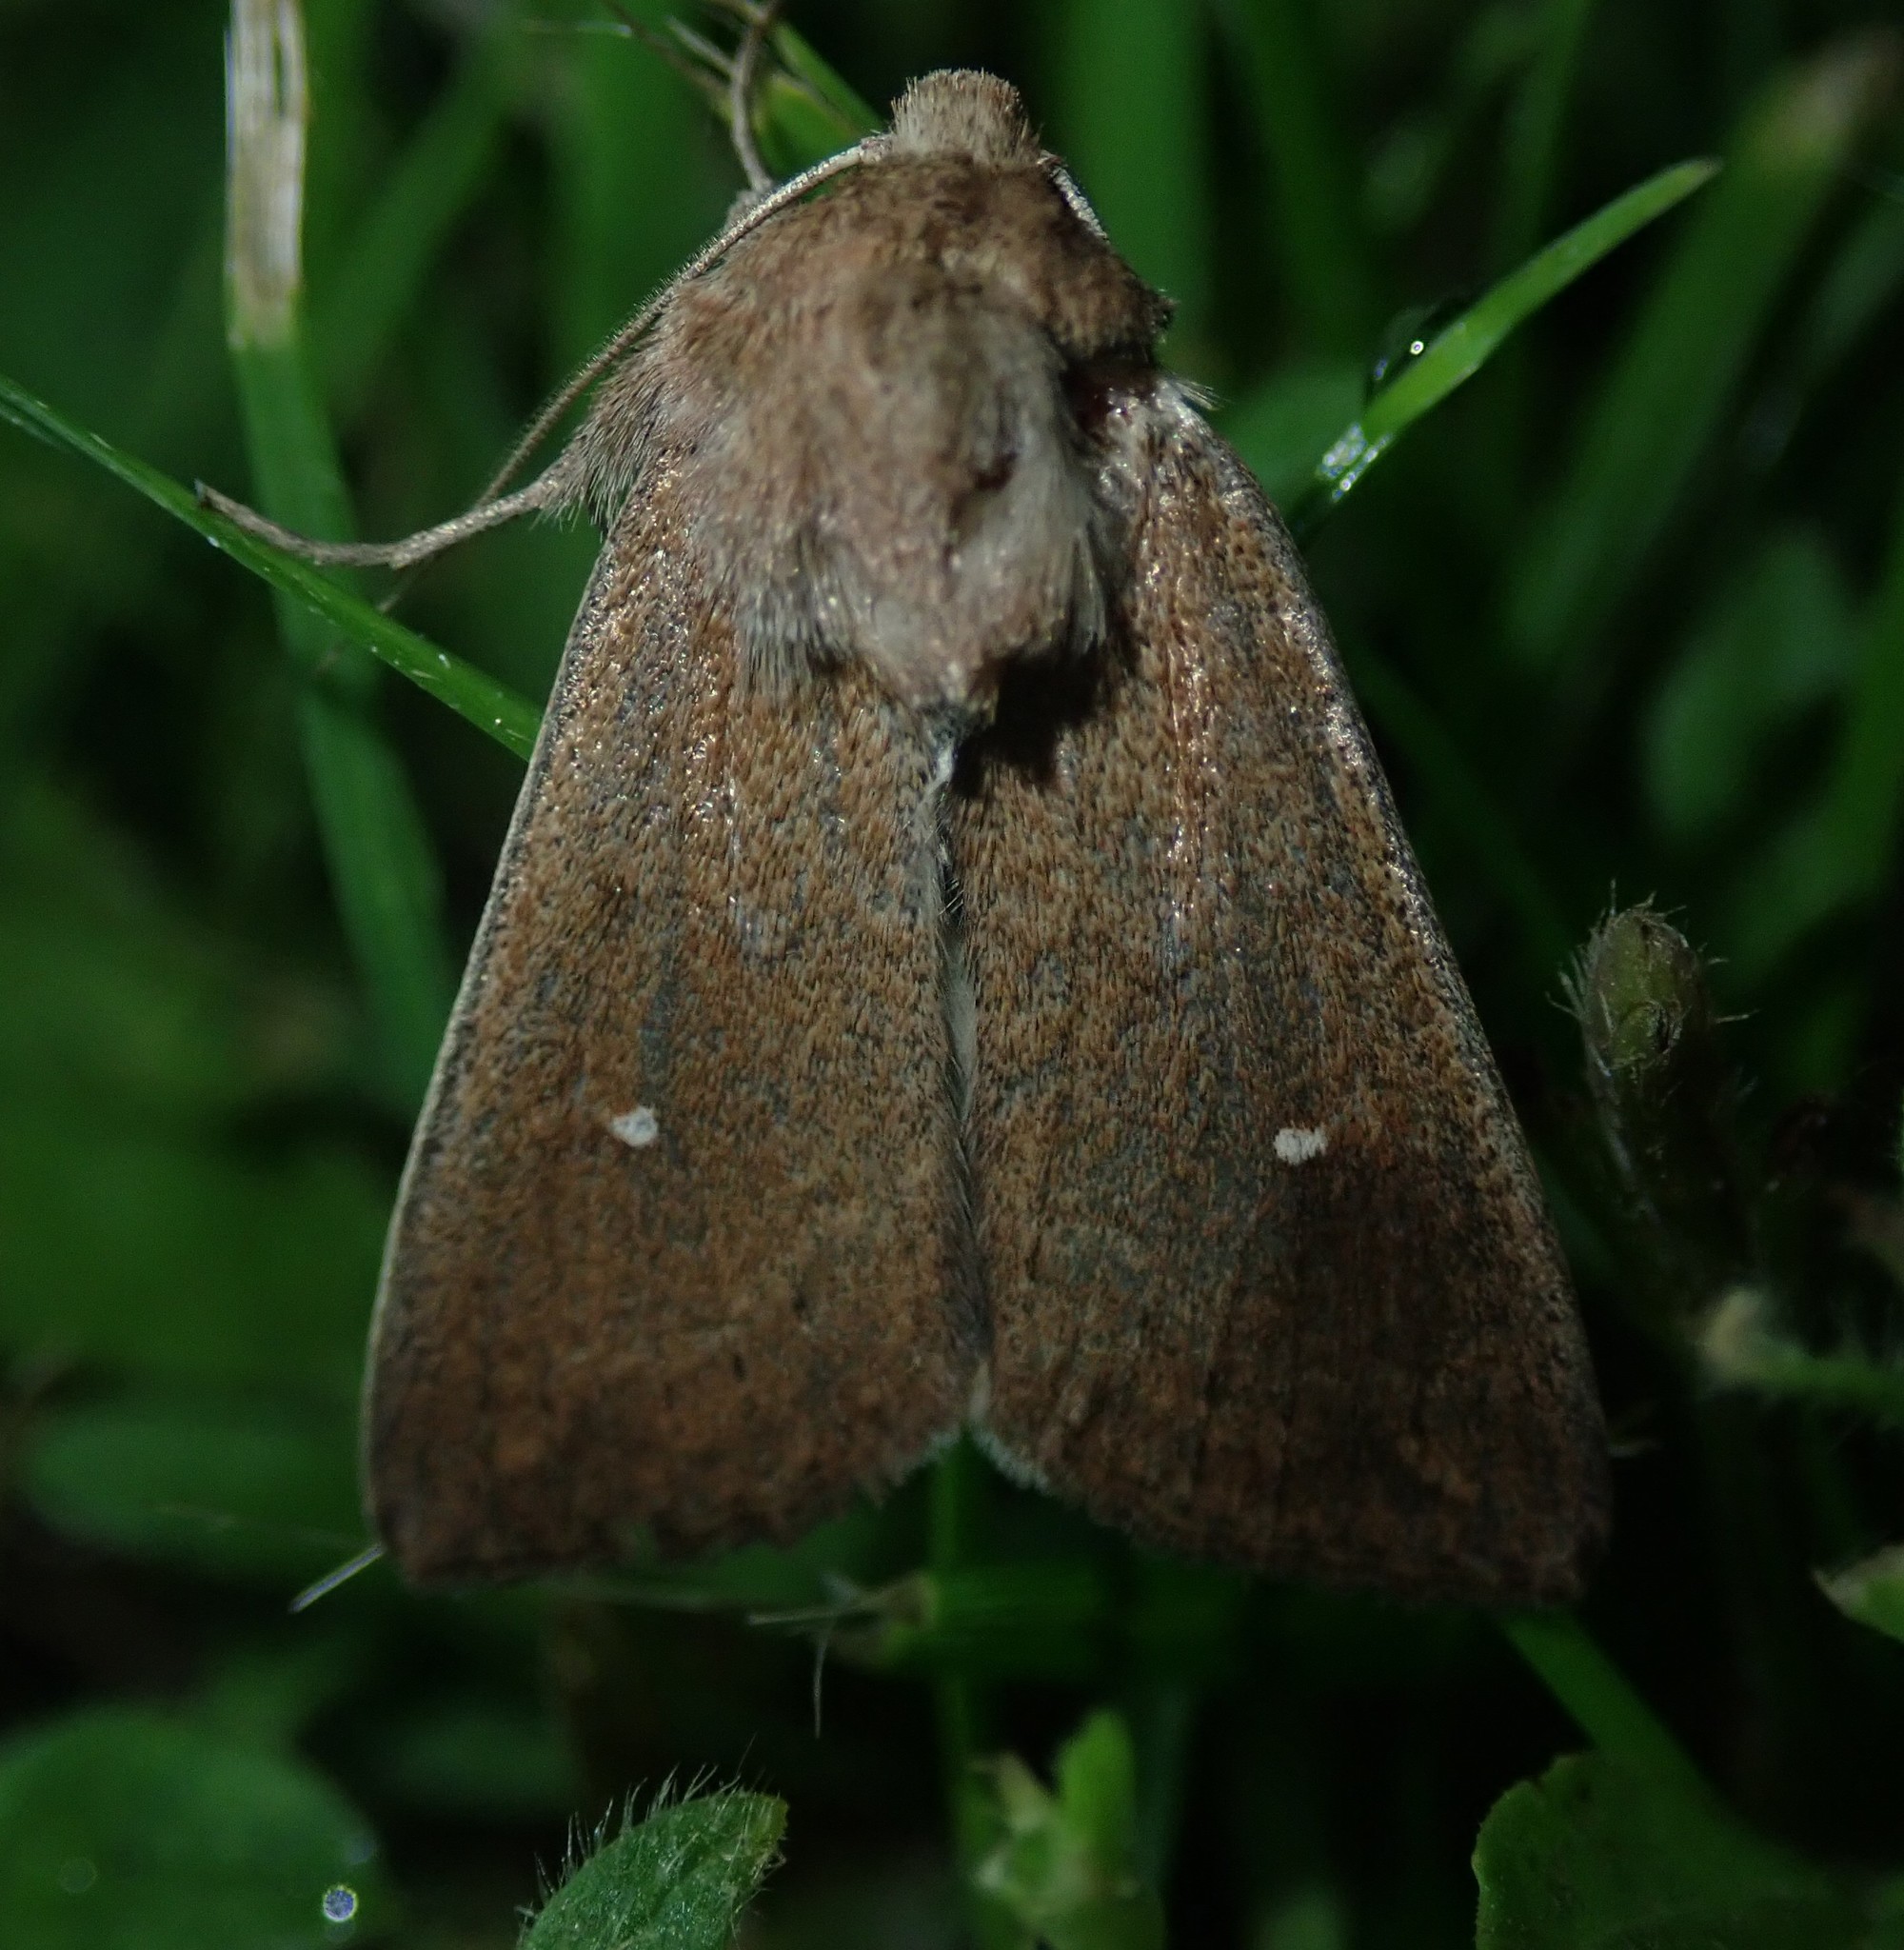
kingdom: Animalia
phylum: Arthropoda
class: Insecta
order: Lepidoptera
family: Noctuidae
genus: Mythimna
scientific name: Mythimna albipuncta
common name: White-point
